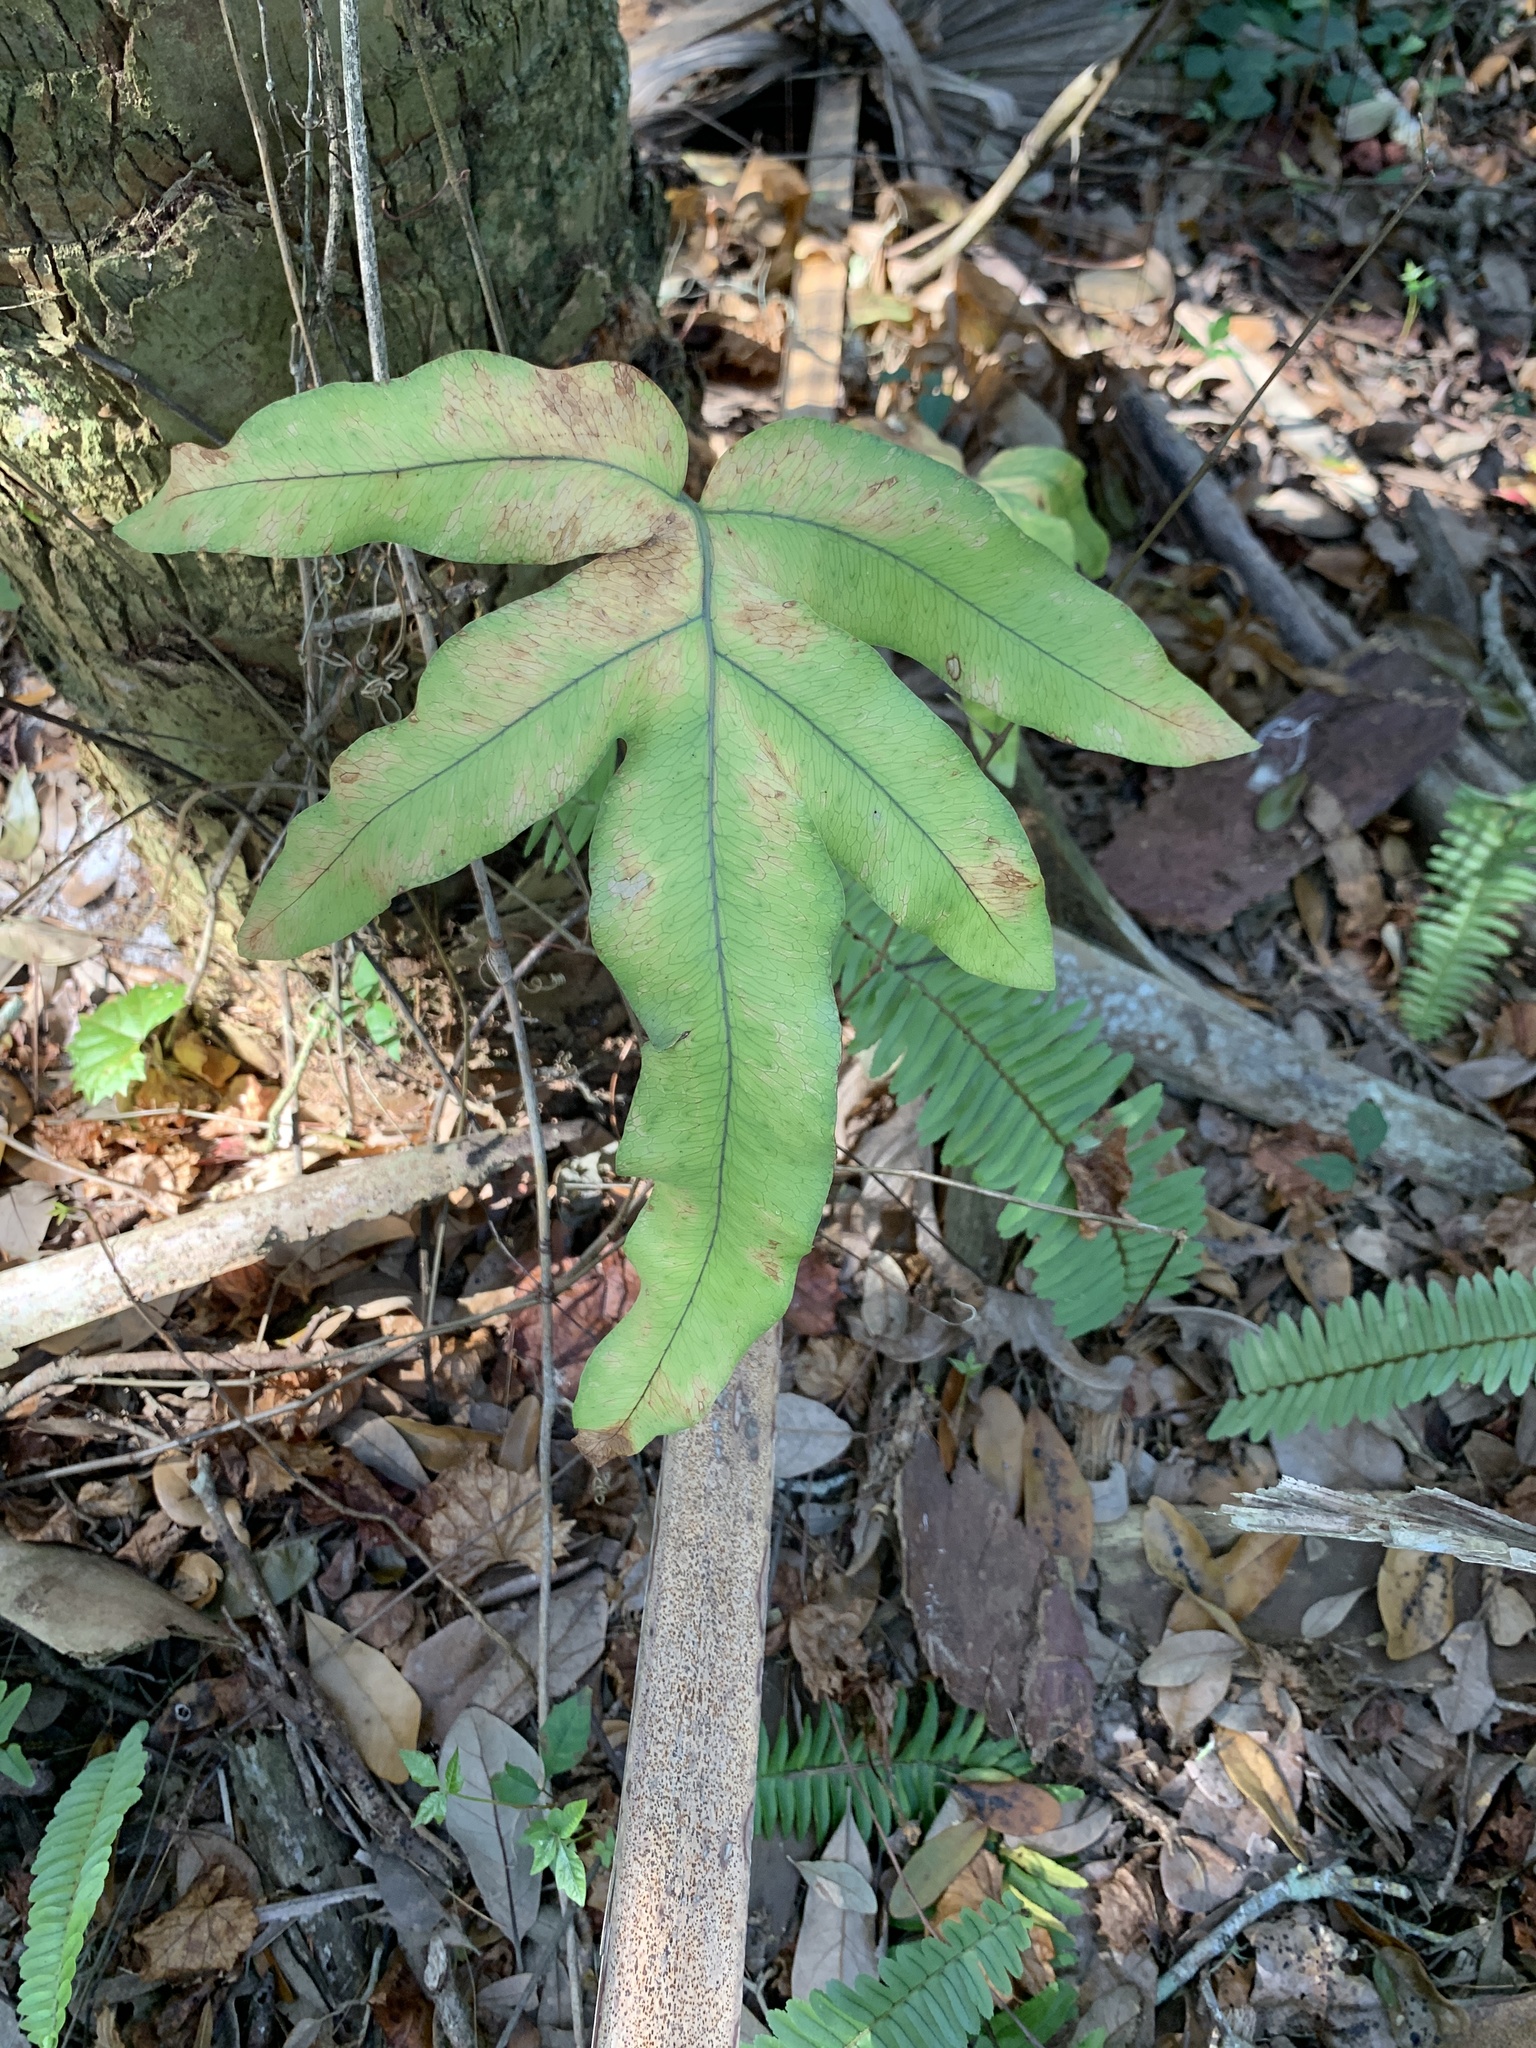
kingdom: Plantae
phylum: Tracheophyta
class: Polypodiopsida
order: Polypodiales
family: Polypodiaceae
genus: Phlebodium
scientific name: Phlebodium aureum
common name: Gold-foot fern
